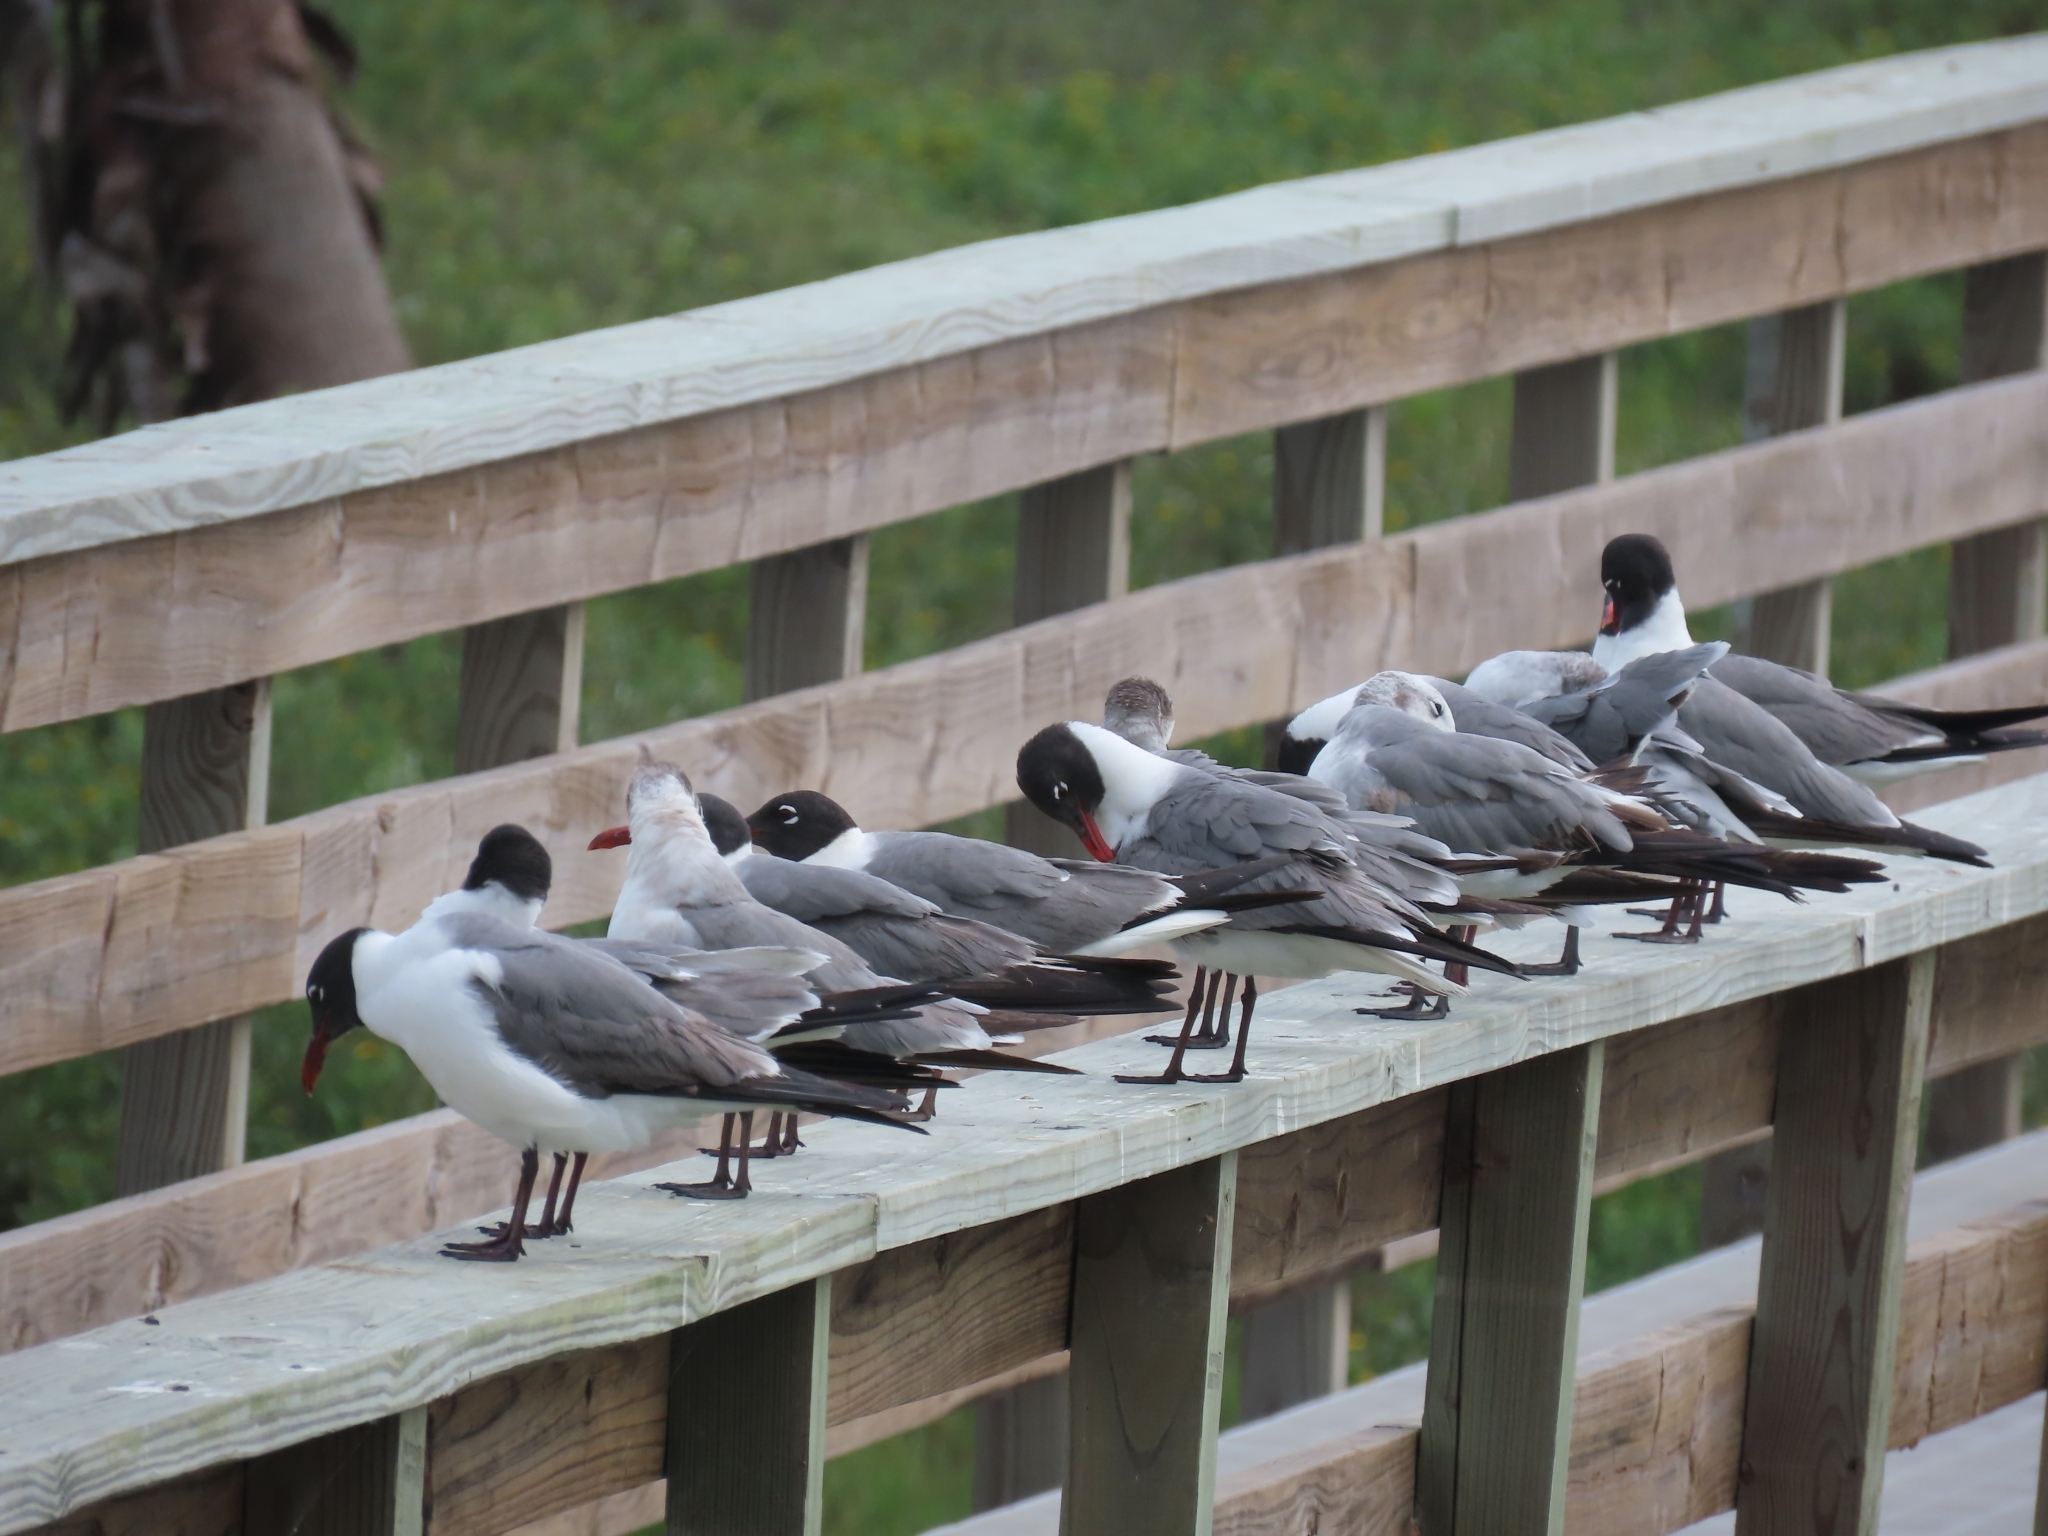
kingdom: Animalia
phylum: Chordata
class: Aves
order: Charadriiformes
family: Laridae
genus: Leucophaeus
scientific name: Leucophaeus atricilla
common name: Laughing gull
